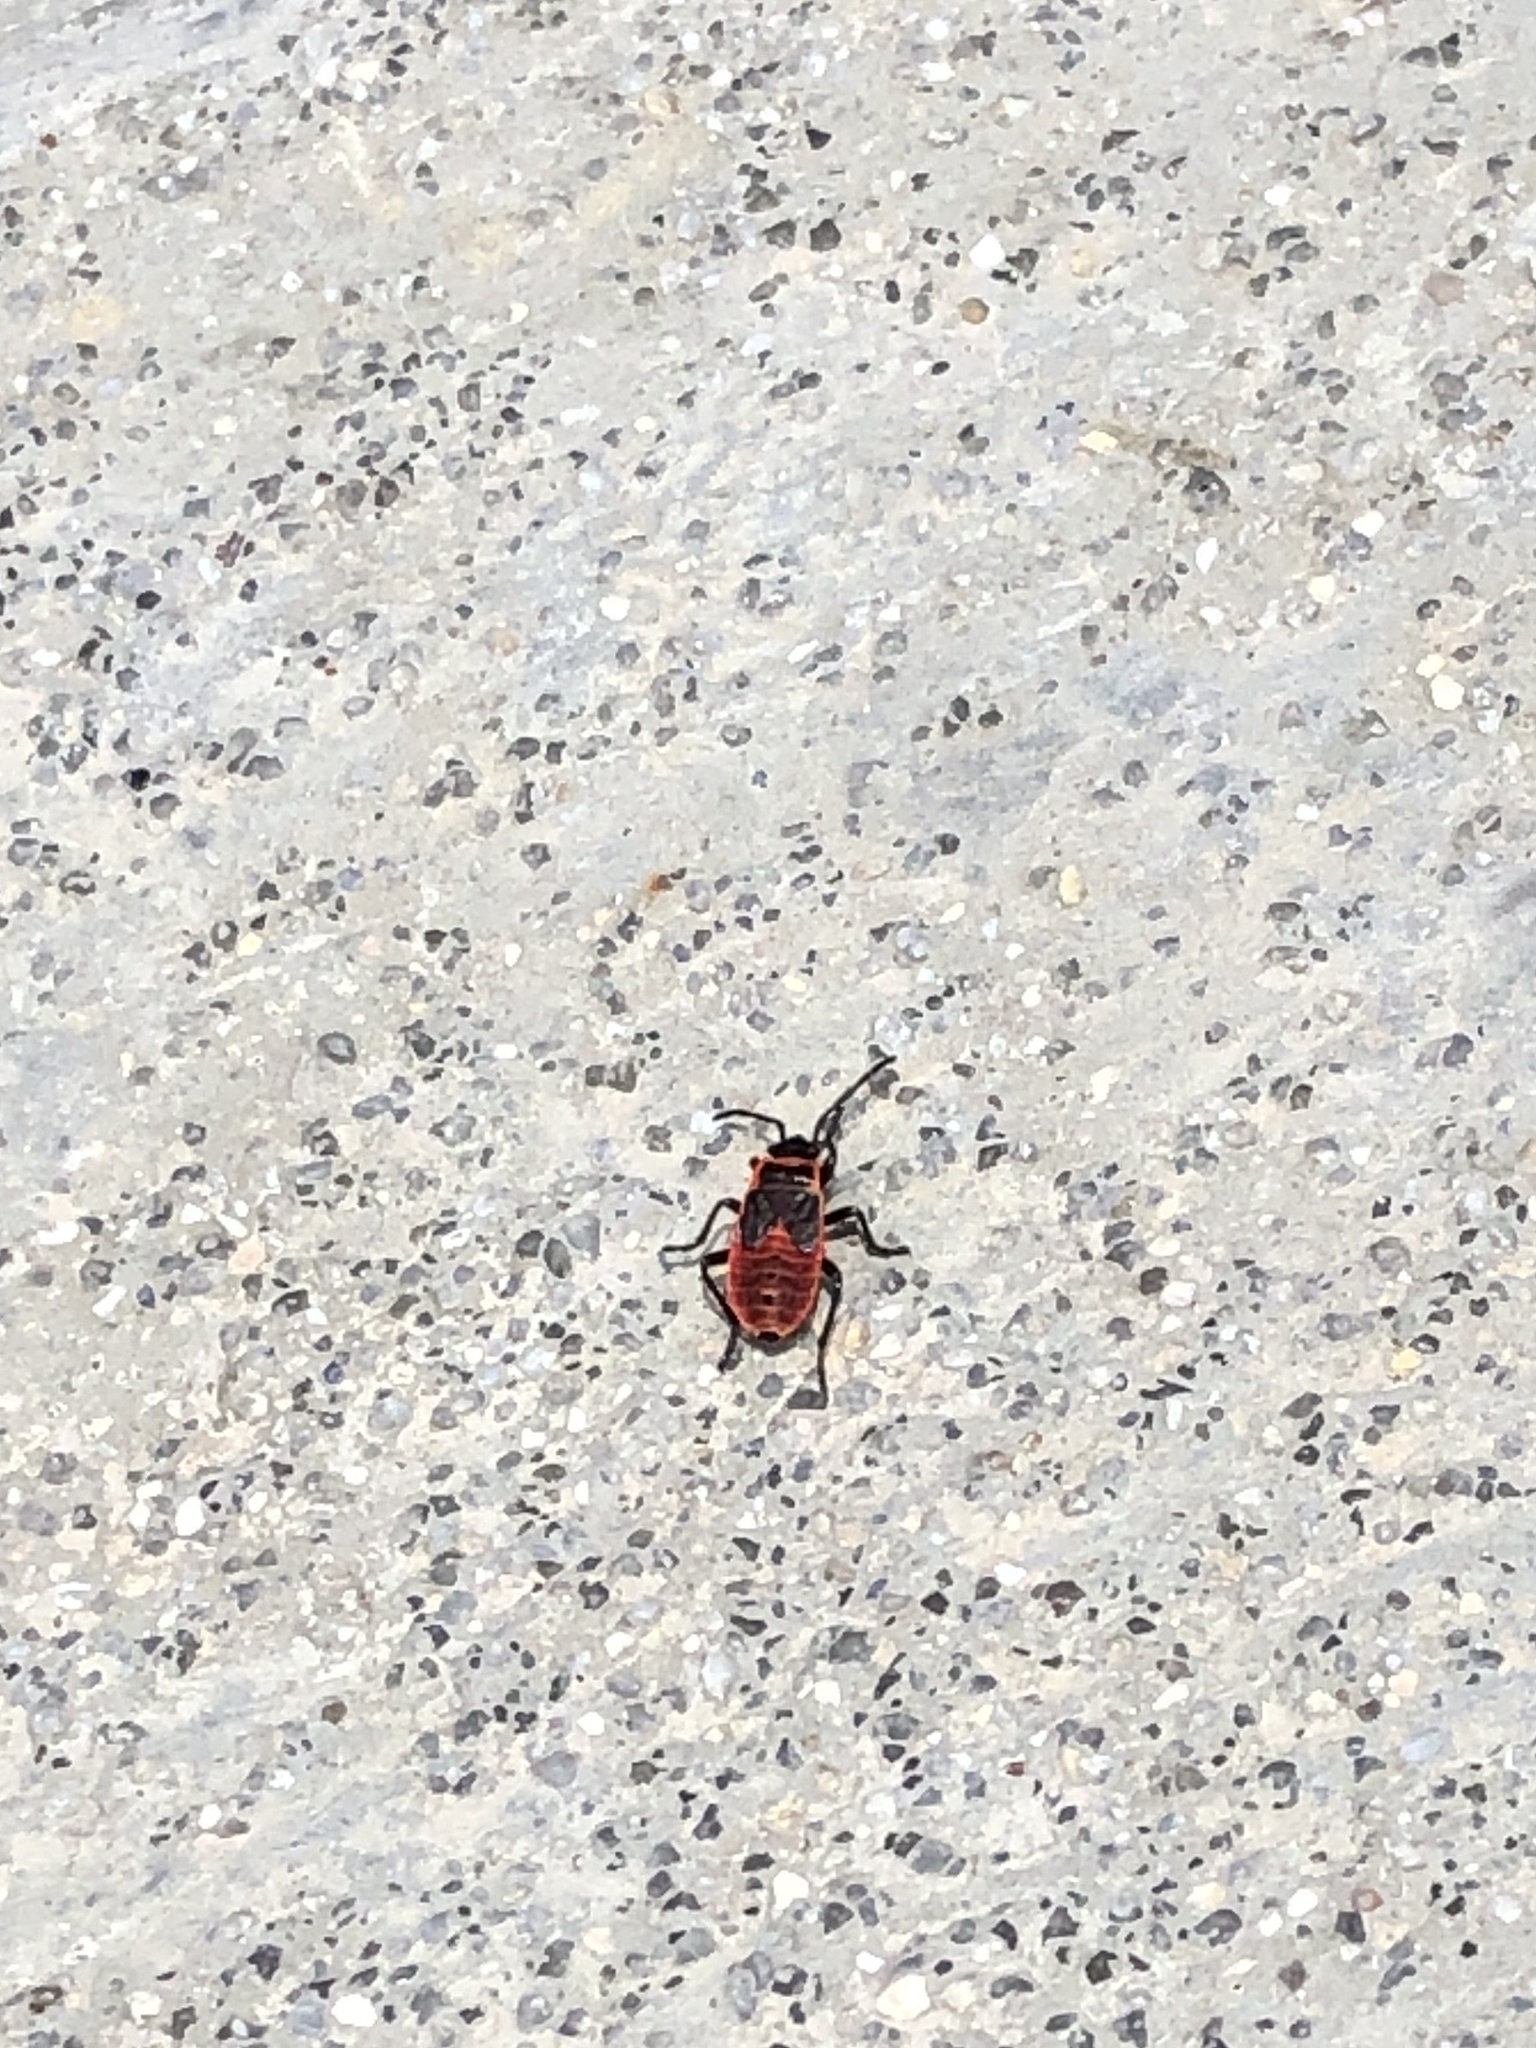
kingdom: Animalia
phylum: Arthropoda
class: Insecta
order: Hemiptera
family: Pyrrhocoridae
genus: Pyrrhocoris
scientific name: Pyrrhocoris apterus
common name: Firebug
